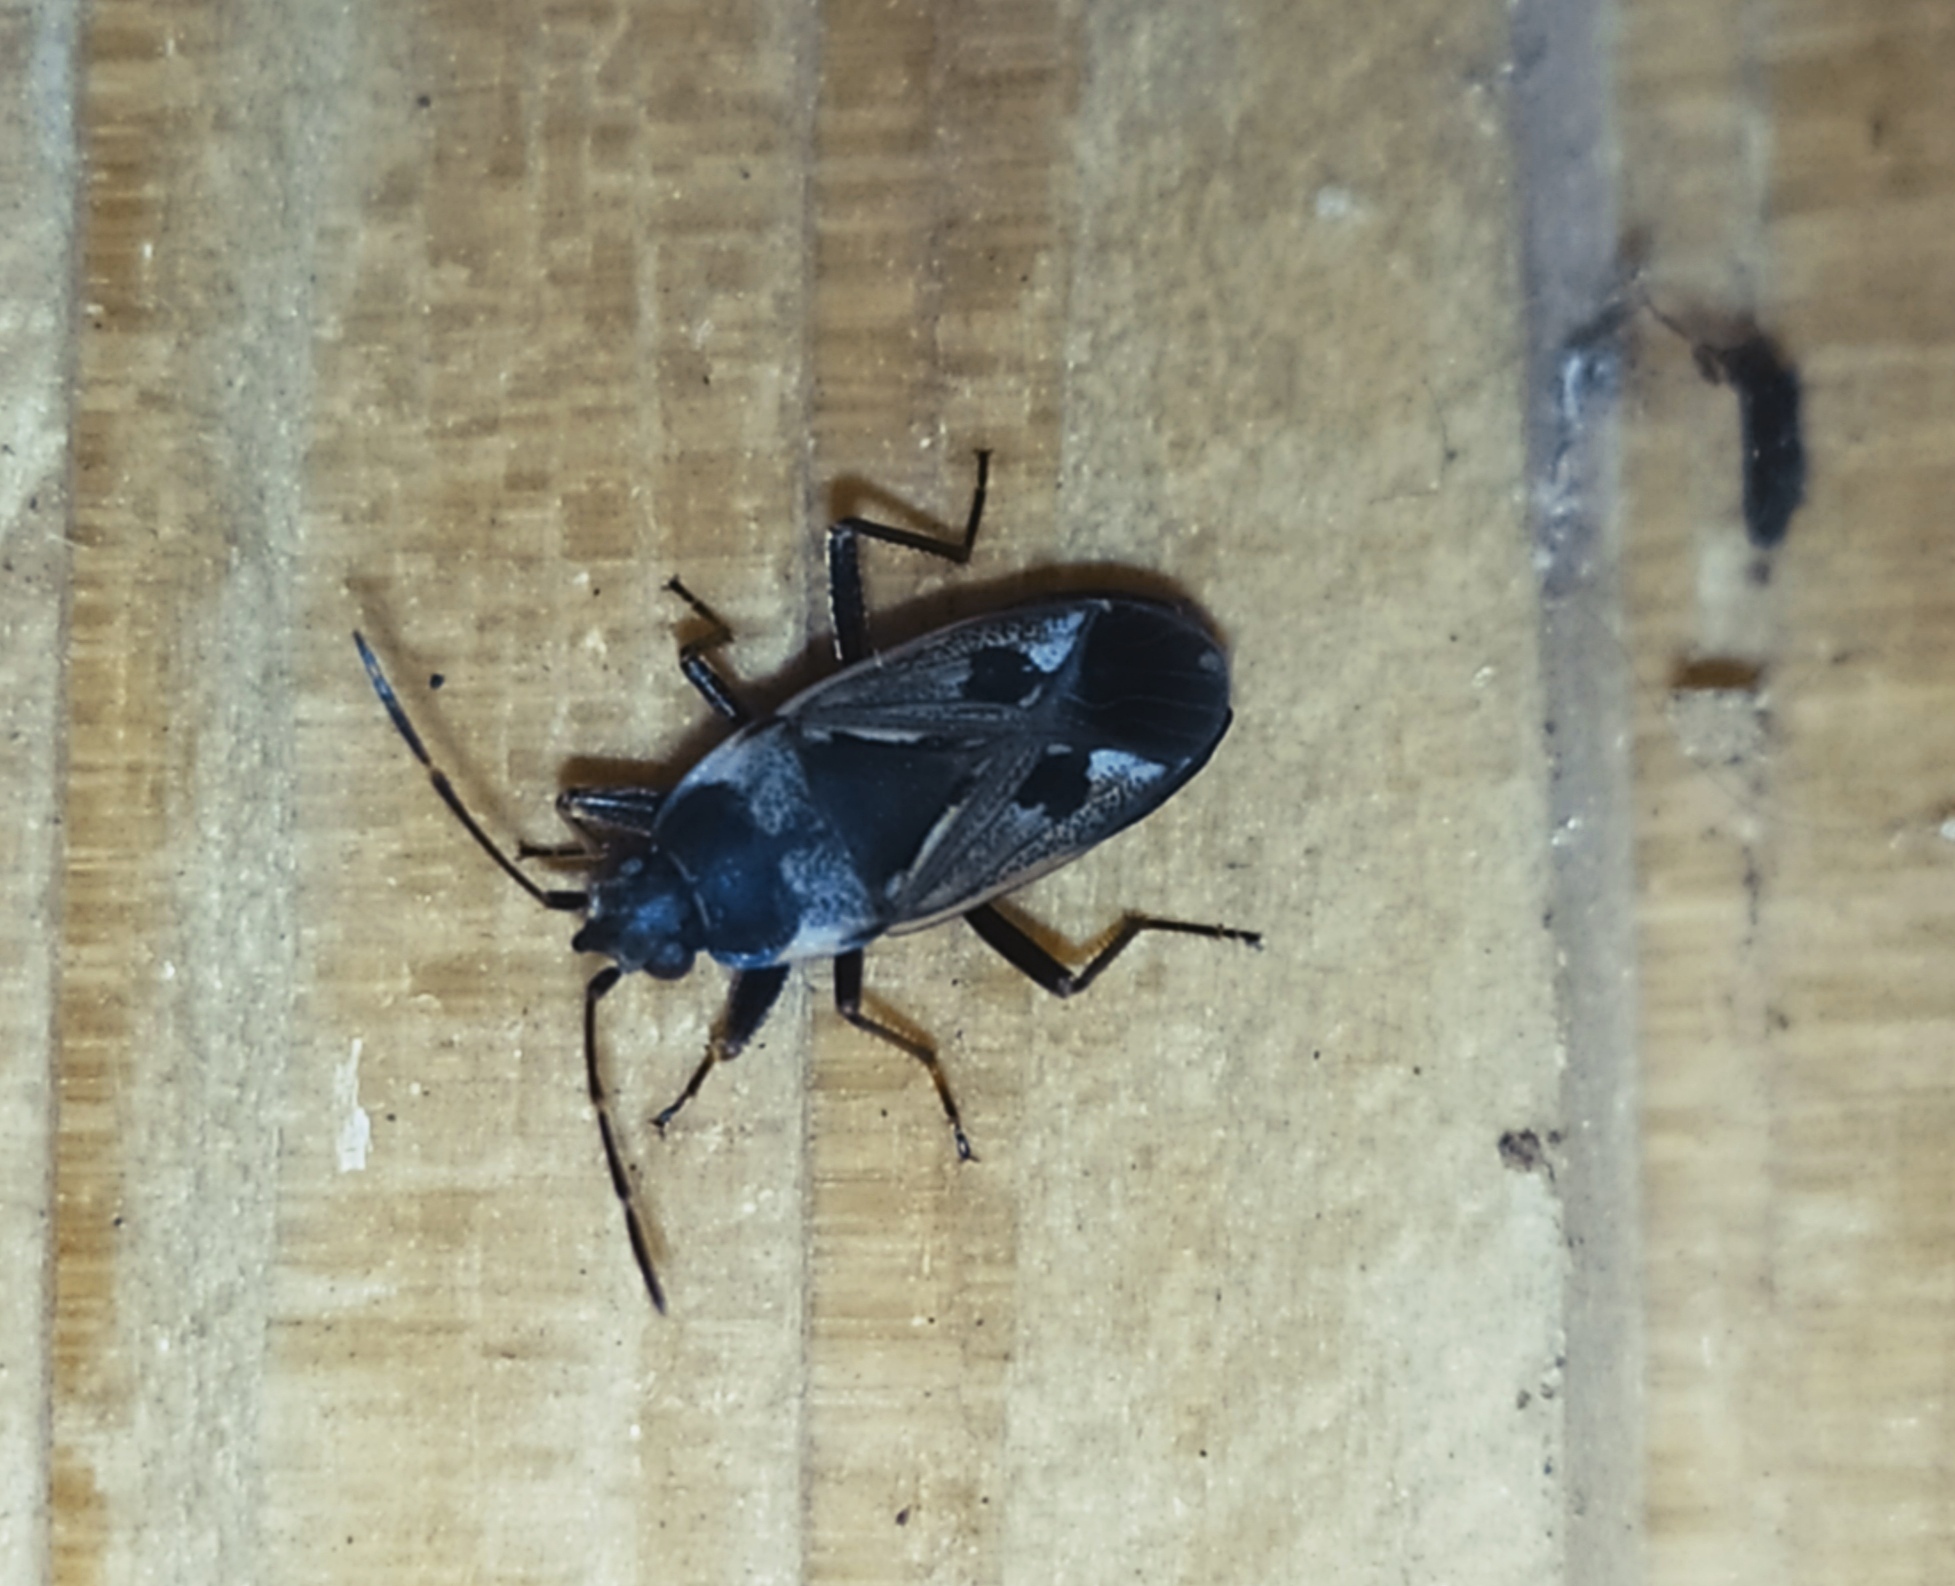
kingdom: Animalia
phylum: Arthropoda
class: Insecta
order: Hemiptera
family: Rhyparochromidae
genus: Rhyparochromus
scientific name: Rhyparochromus vulgaris
